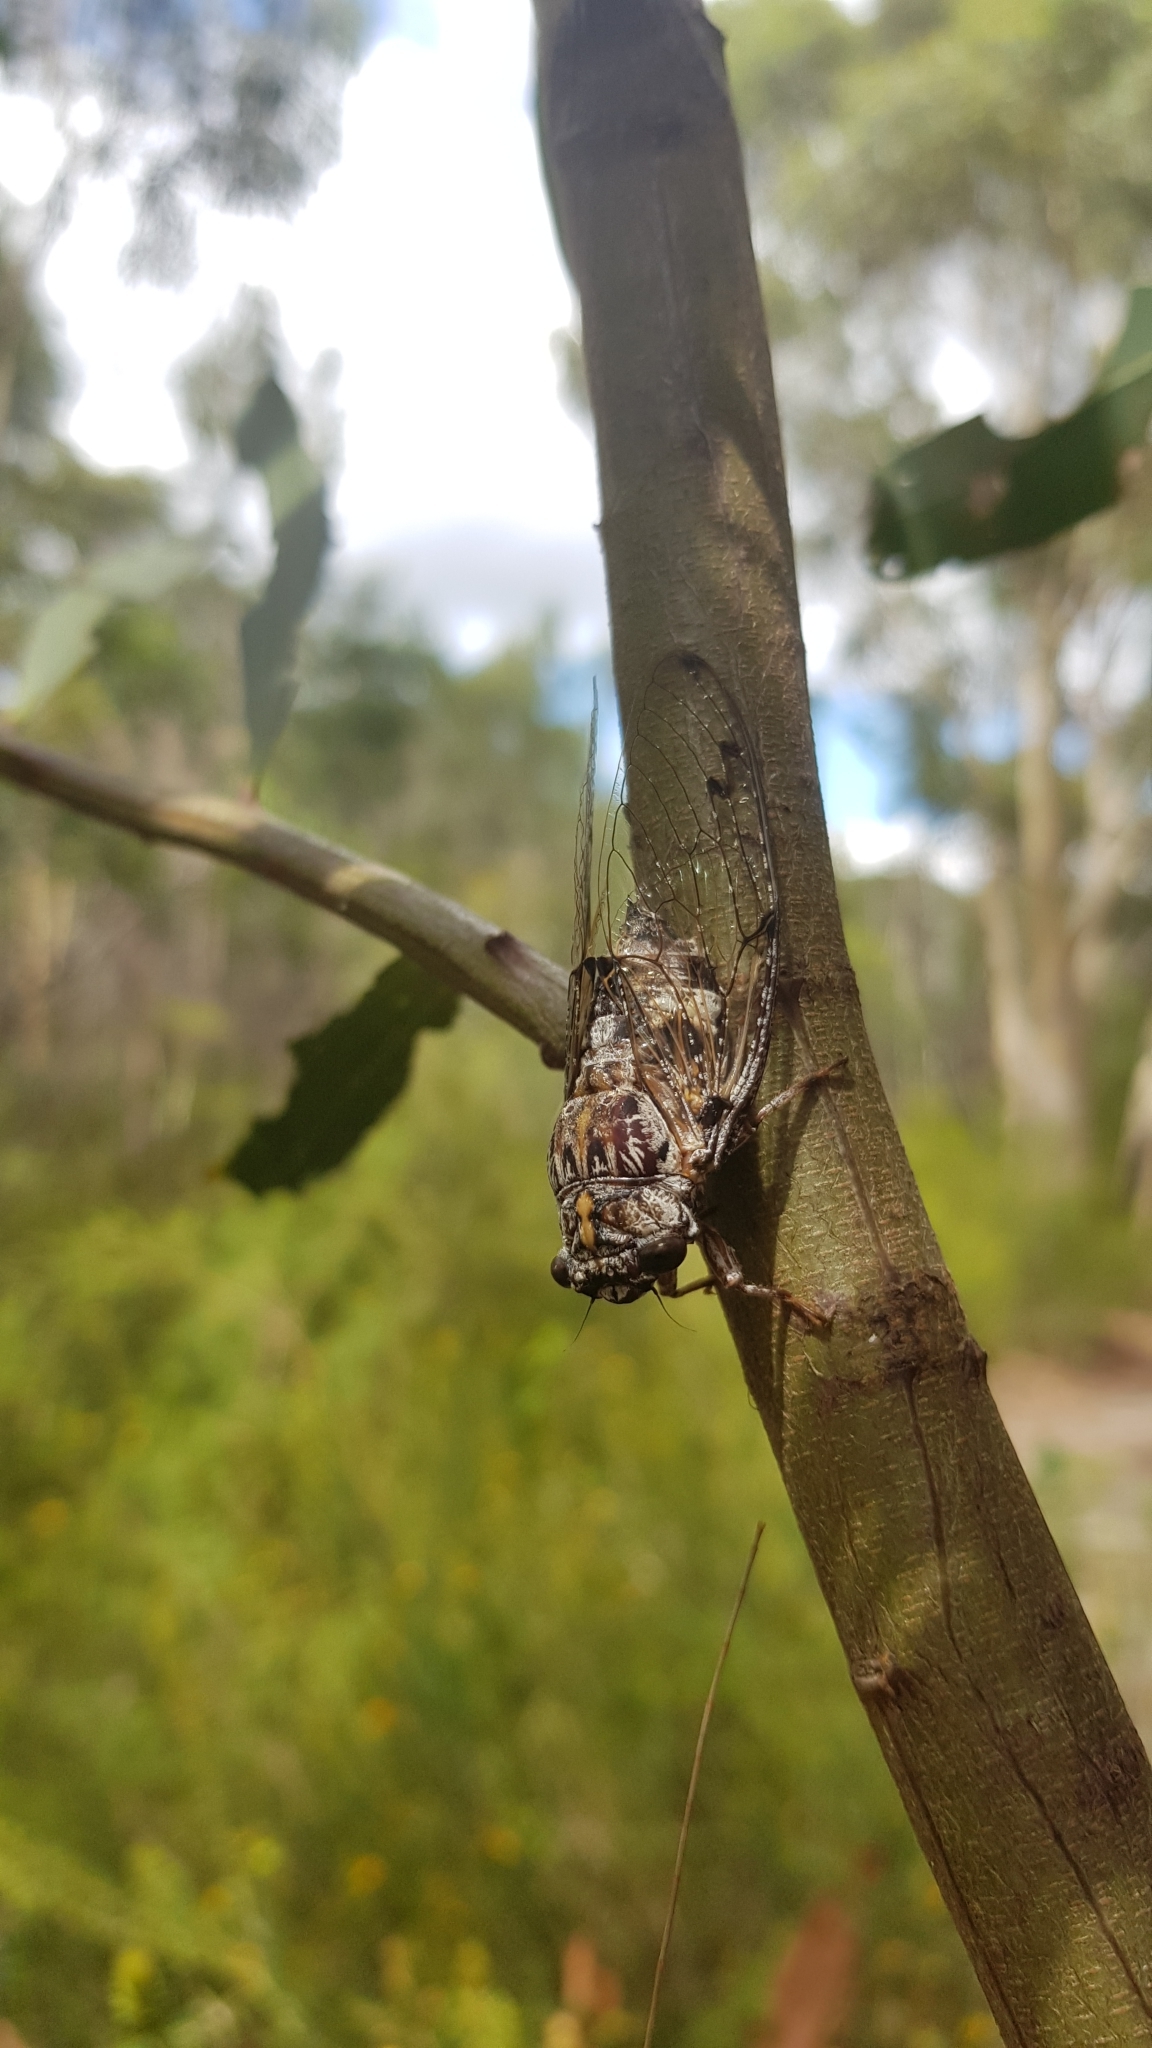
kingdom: Animalia
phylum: Arthropoda
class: Insecta
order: Hemiptera
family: Cicadidae
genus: Aleeta
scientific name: Aleeta curvicosta
